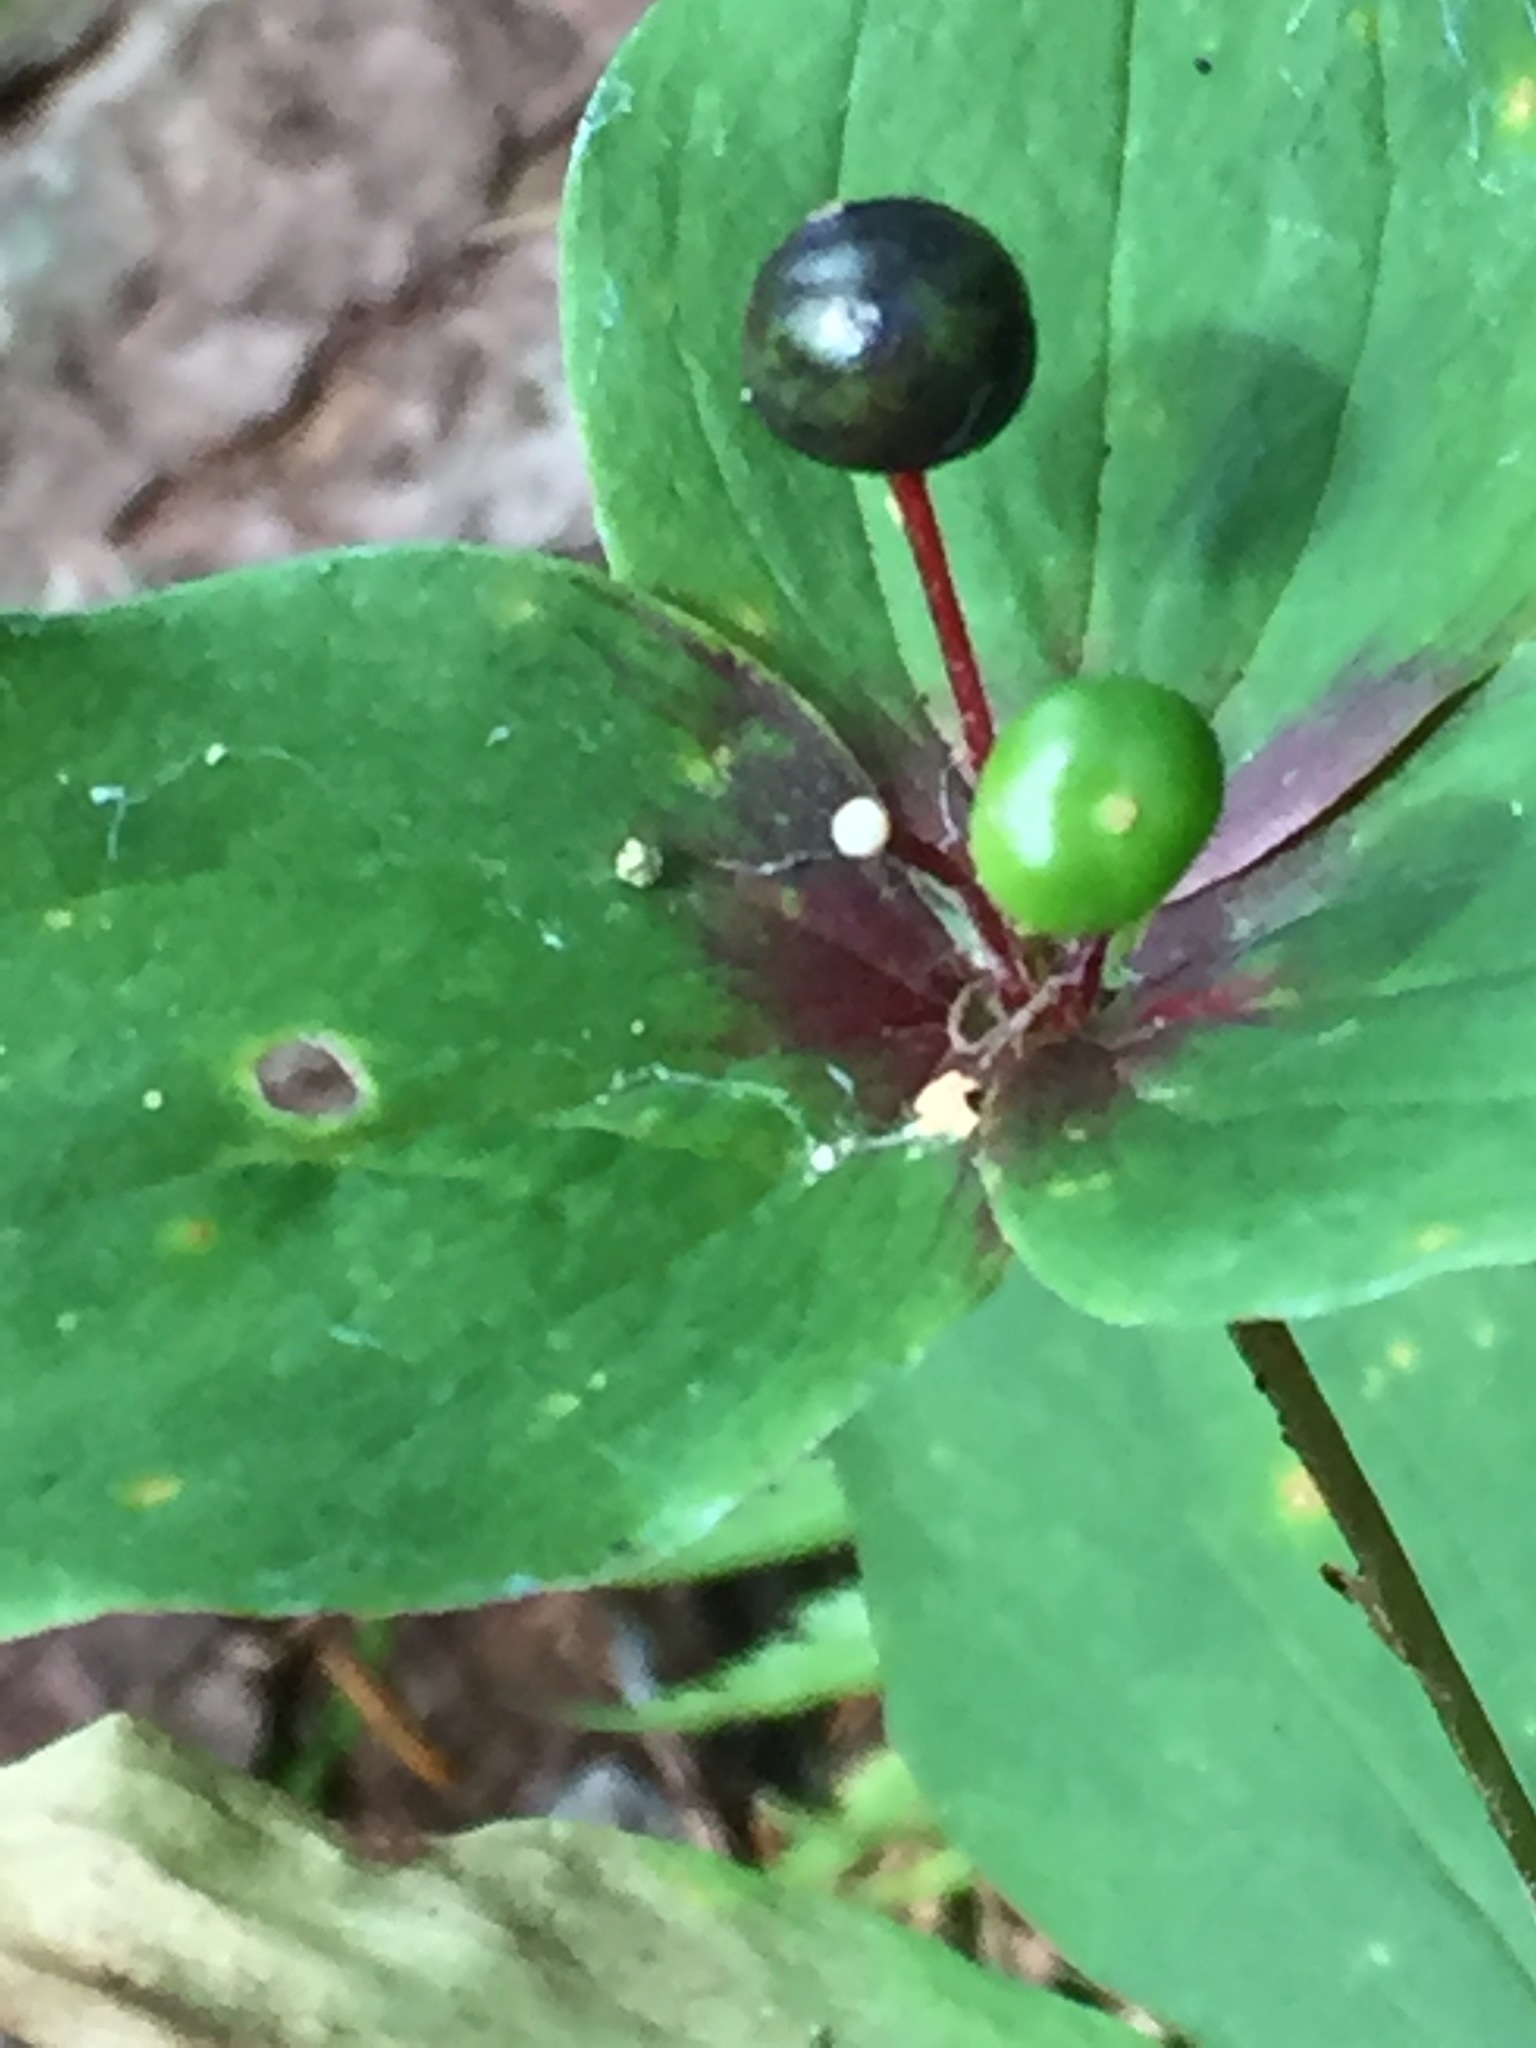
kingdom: Plantae
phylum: Tracheophyta
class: Liliopsida
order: Liliales
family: Liliaceae
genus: Medeola
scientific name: Medeola virginiana
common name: Indian cucumber-root
